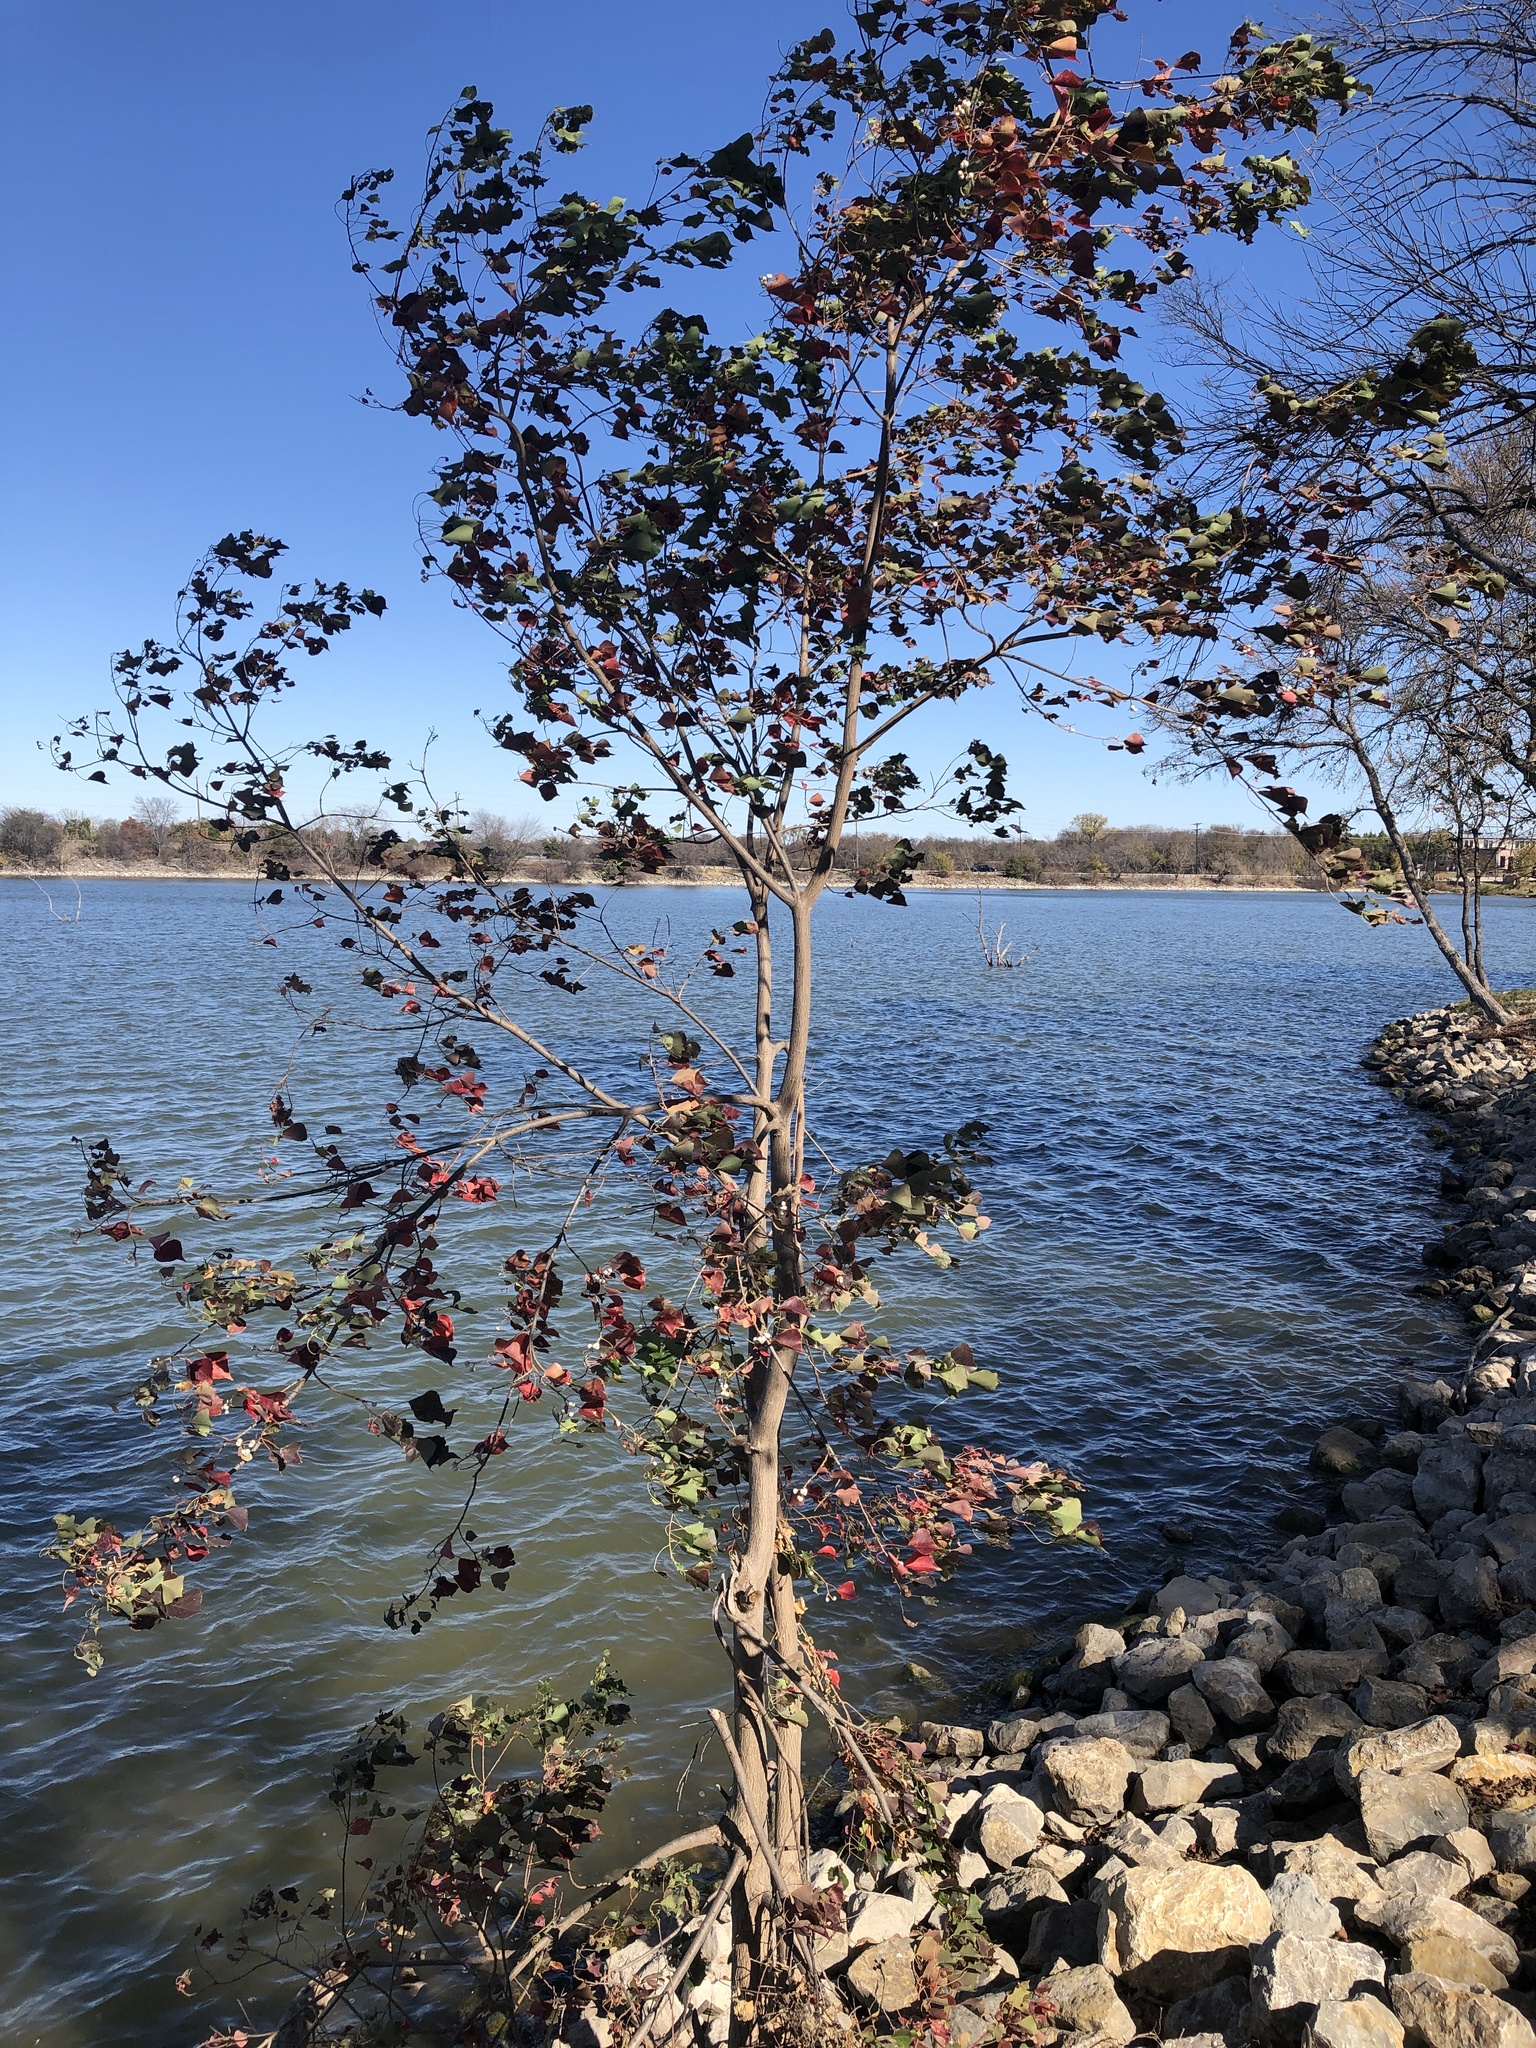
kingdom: Plantae
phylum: Tracheophyta
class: Magnoliopsida
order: Malpighiales
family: Euphorbiaceae
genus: Triadica
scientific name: Triadica sebifera
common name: Chinese tallow
